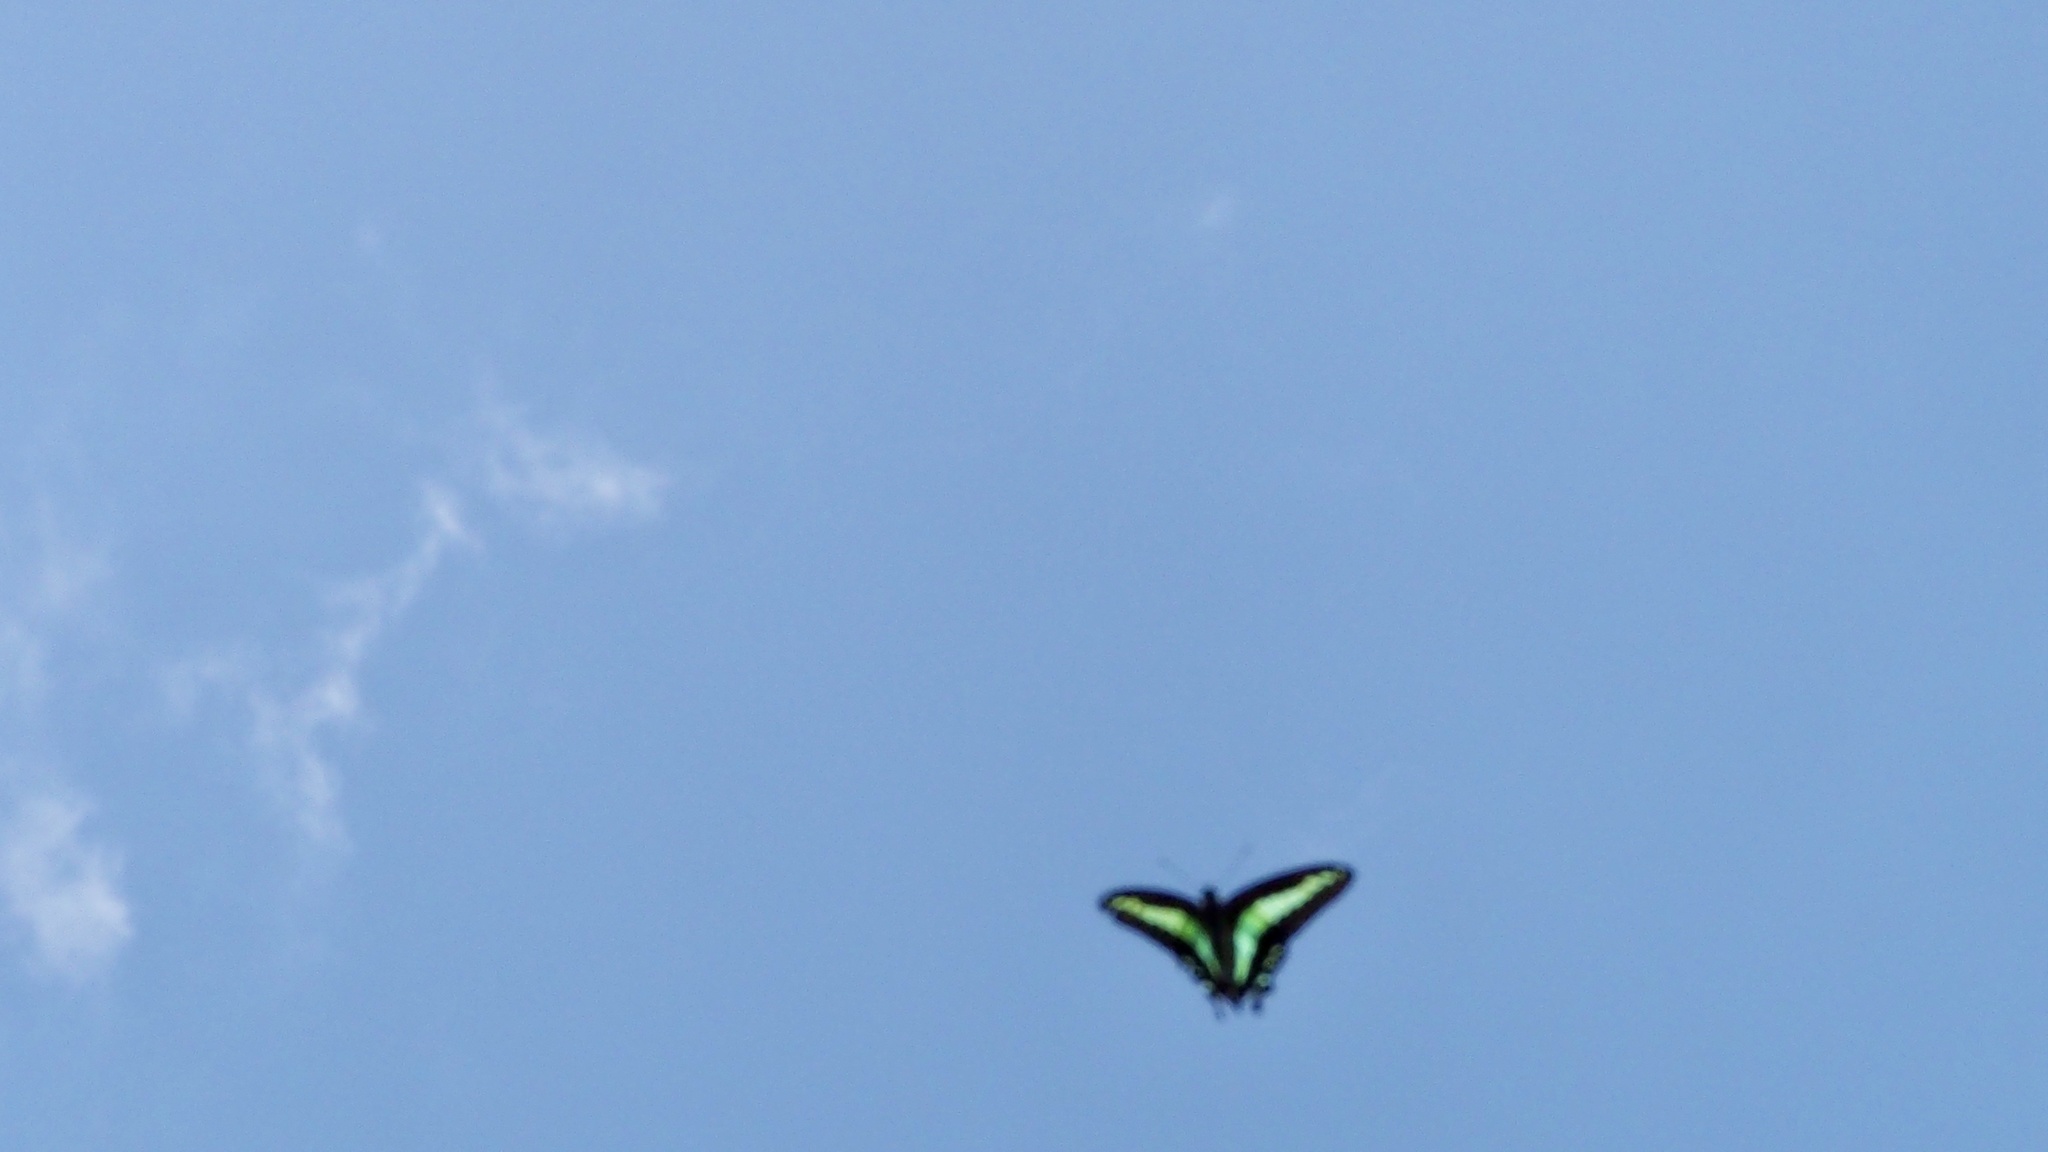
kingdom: Fungi
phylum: Ascomycota
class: Sordariomycetes
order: Microascales
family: Microascaceae
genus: Graphium
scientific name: Graphium sarpedon
